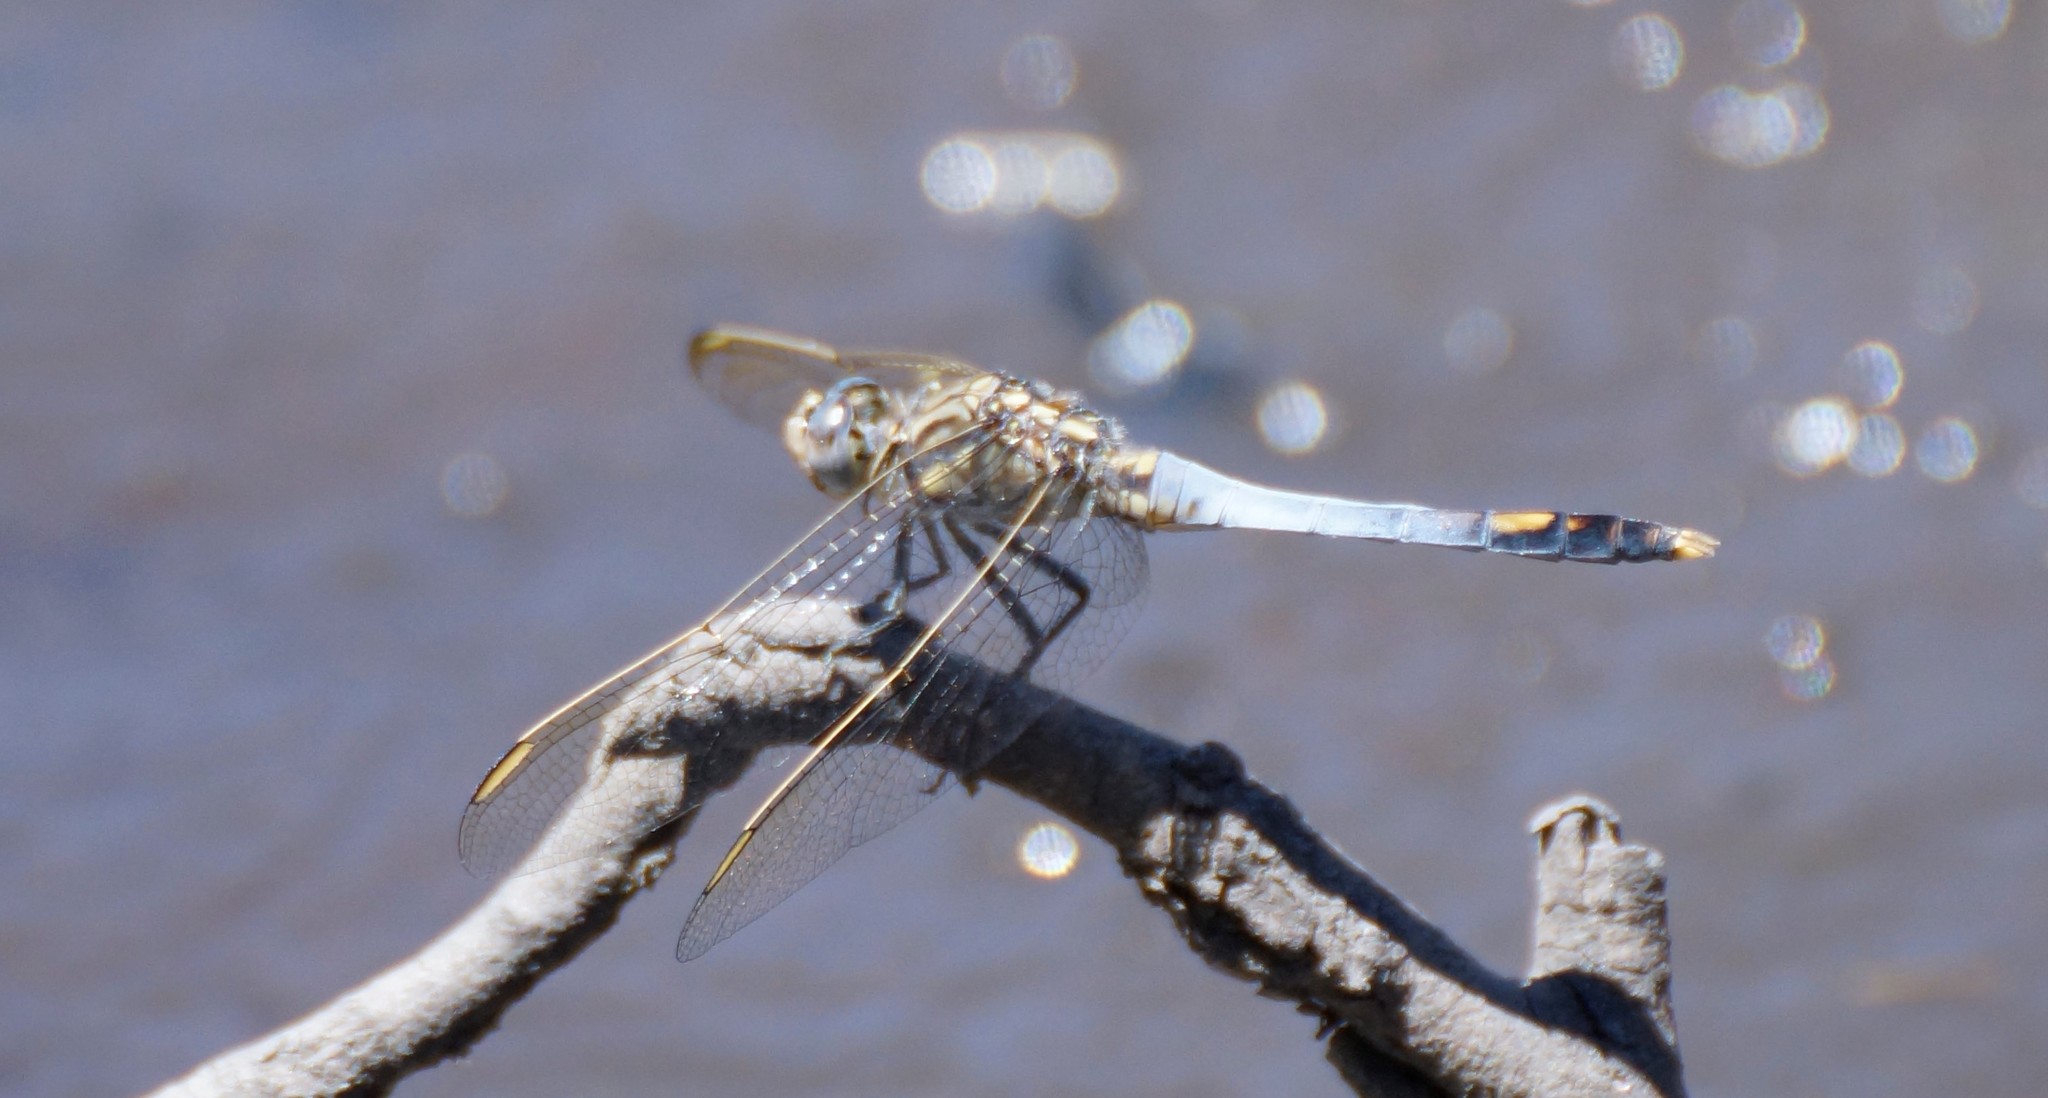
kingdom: Animalia
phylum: Arthropoda
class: Insecta
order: Odonata
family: Libellulidae
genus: Orthetrum
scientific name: Orthetrum caledonicum
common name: Blue skimmer
